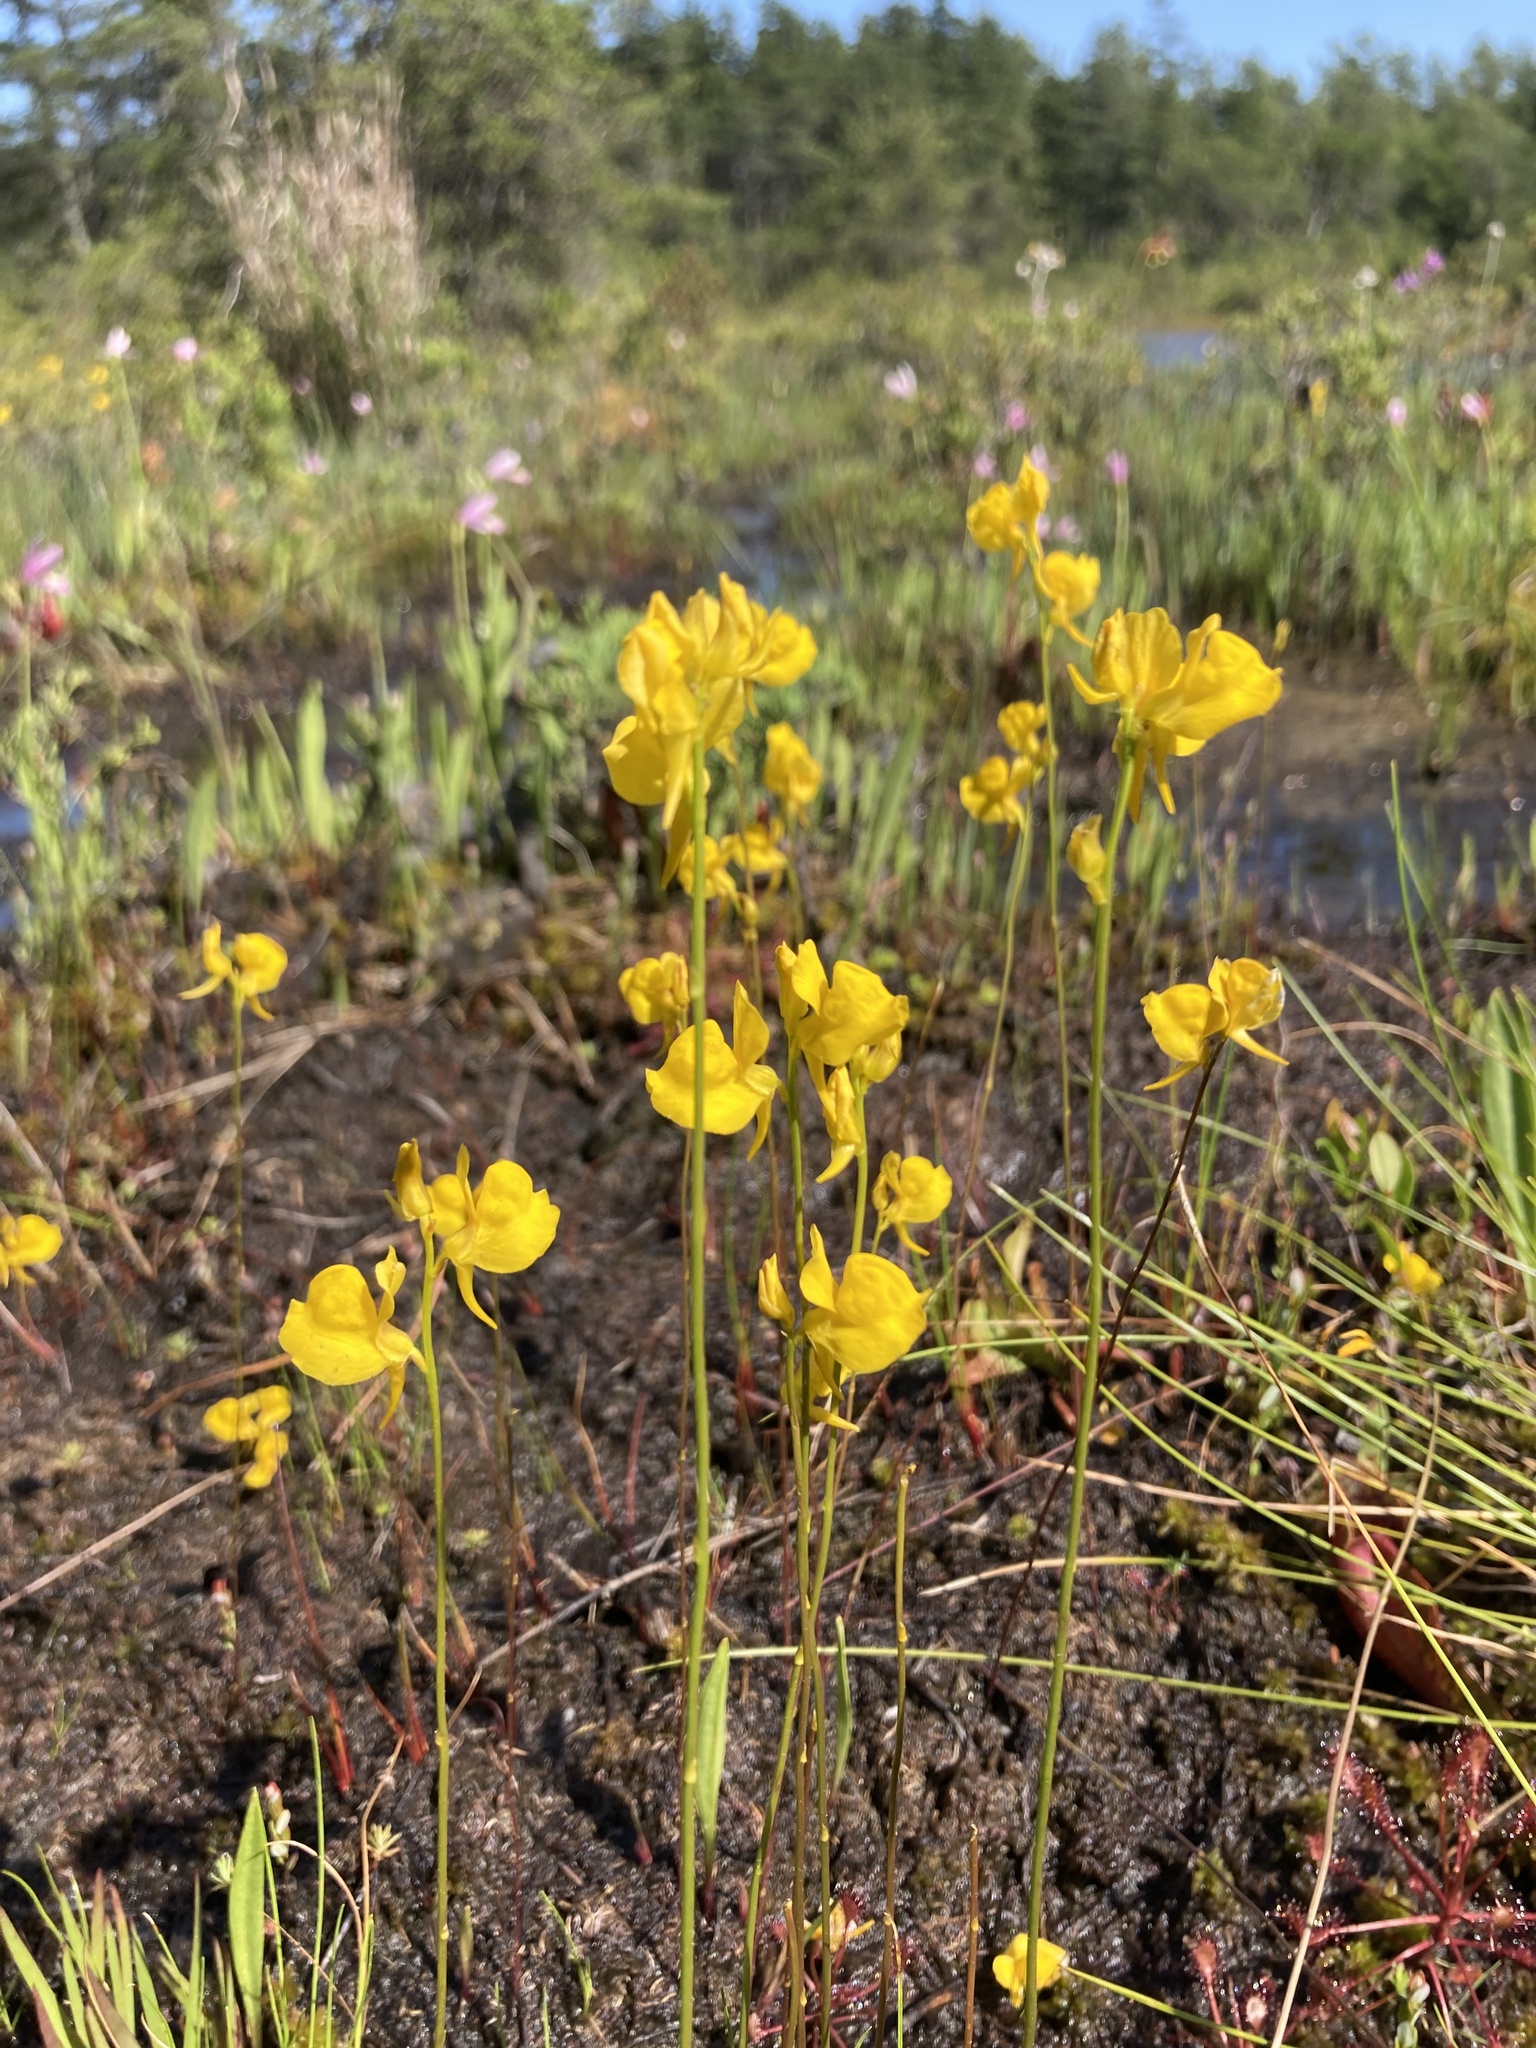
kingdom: Plantae
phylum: Tracheophyta
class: Magnoliopsida
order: Lamiales
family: Lentibulariaceae
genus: Utricularia
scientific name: Utricularia cornuta
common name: Horned bladderwort
